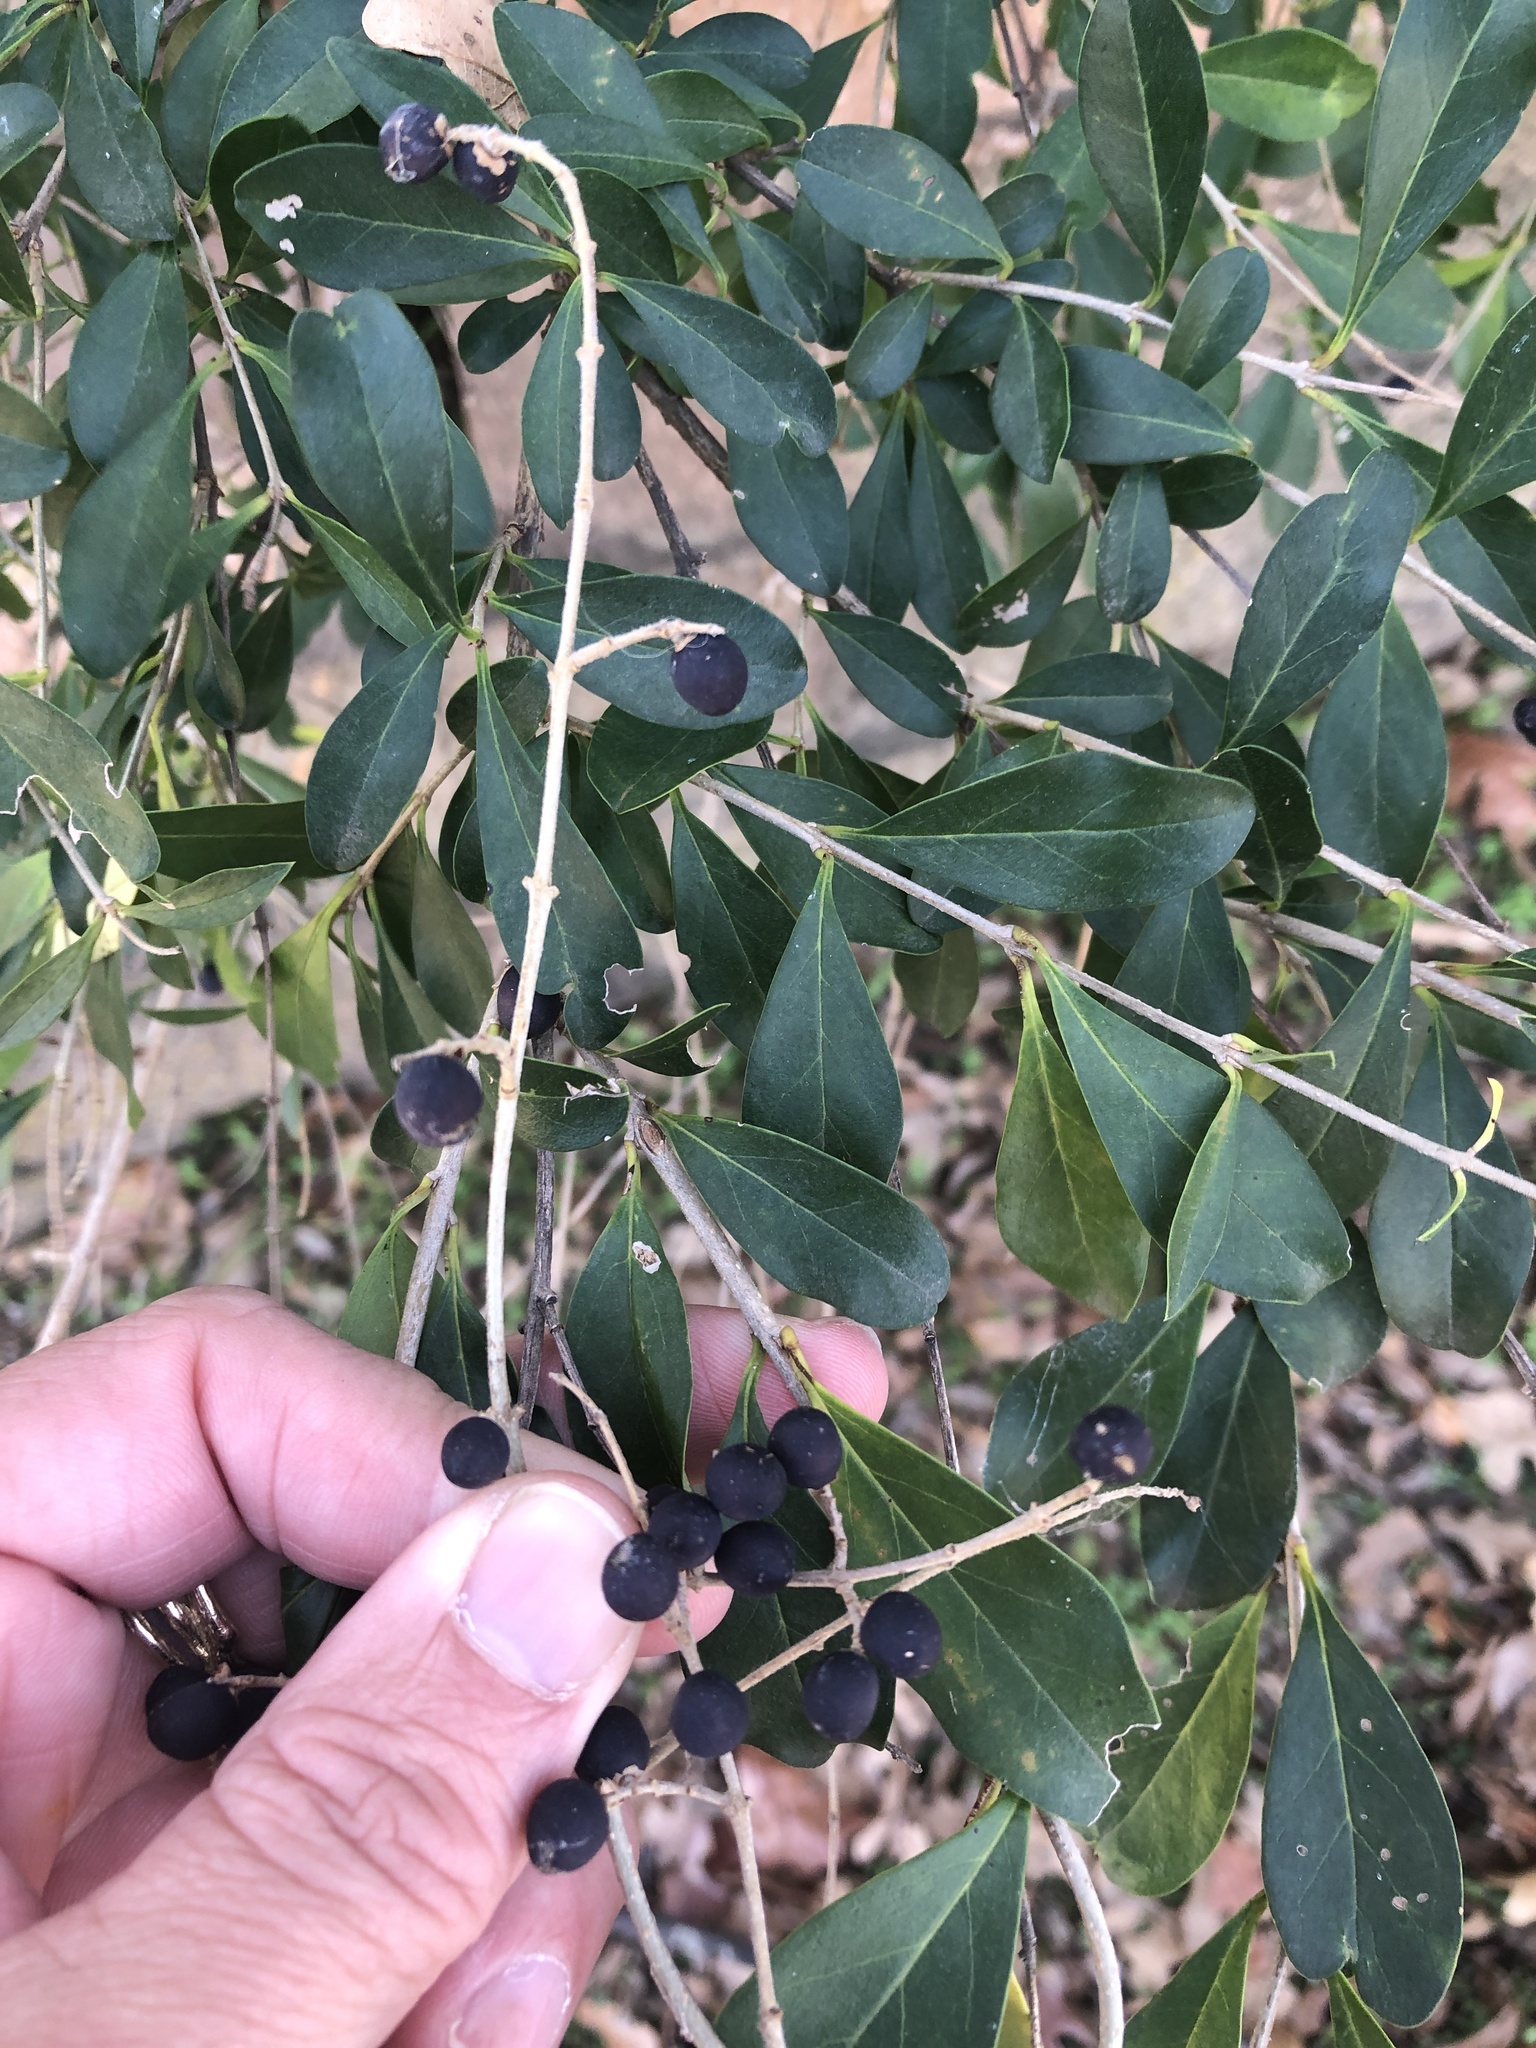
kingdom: Plantae
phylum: Tracheophyta
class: Magnoliopsida
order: Lamiales
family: Oleaceae
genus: Ligustrum
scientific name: Ligustrum quihoui
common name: Waxyleaf privet
